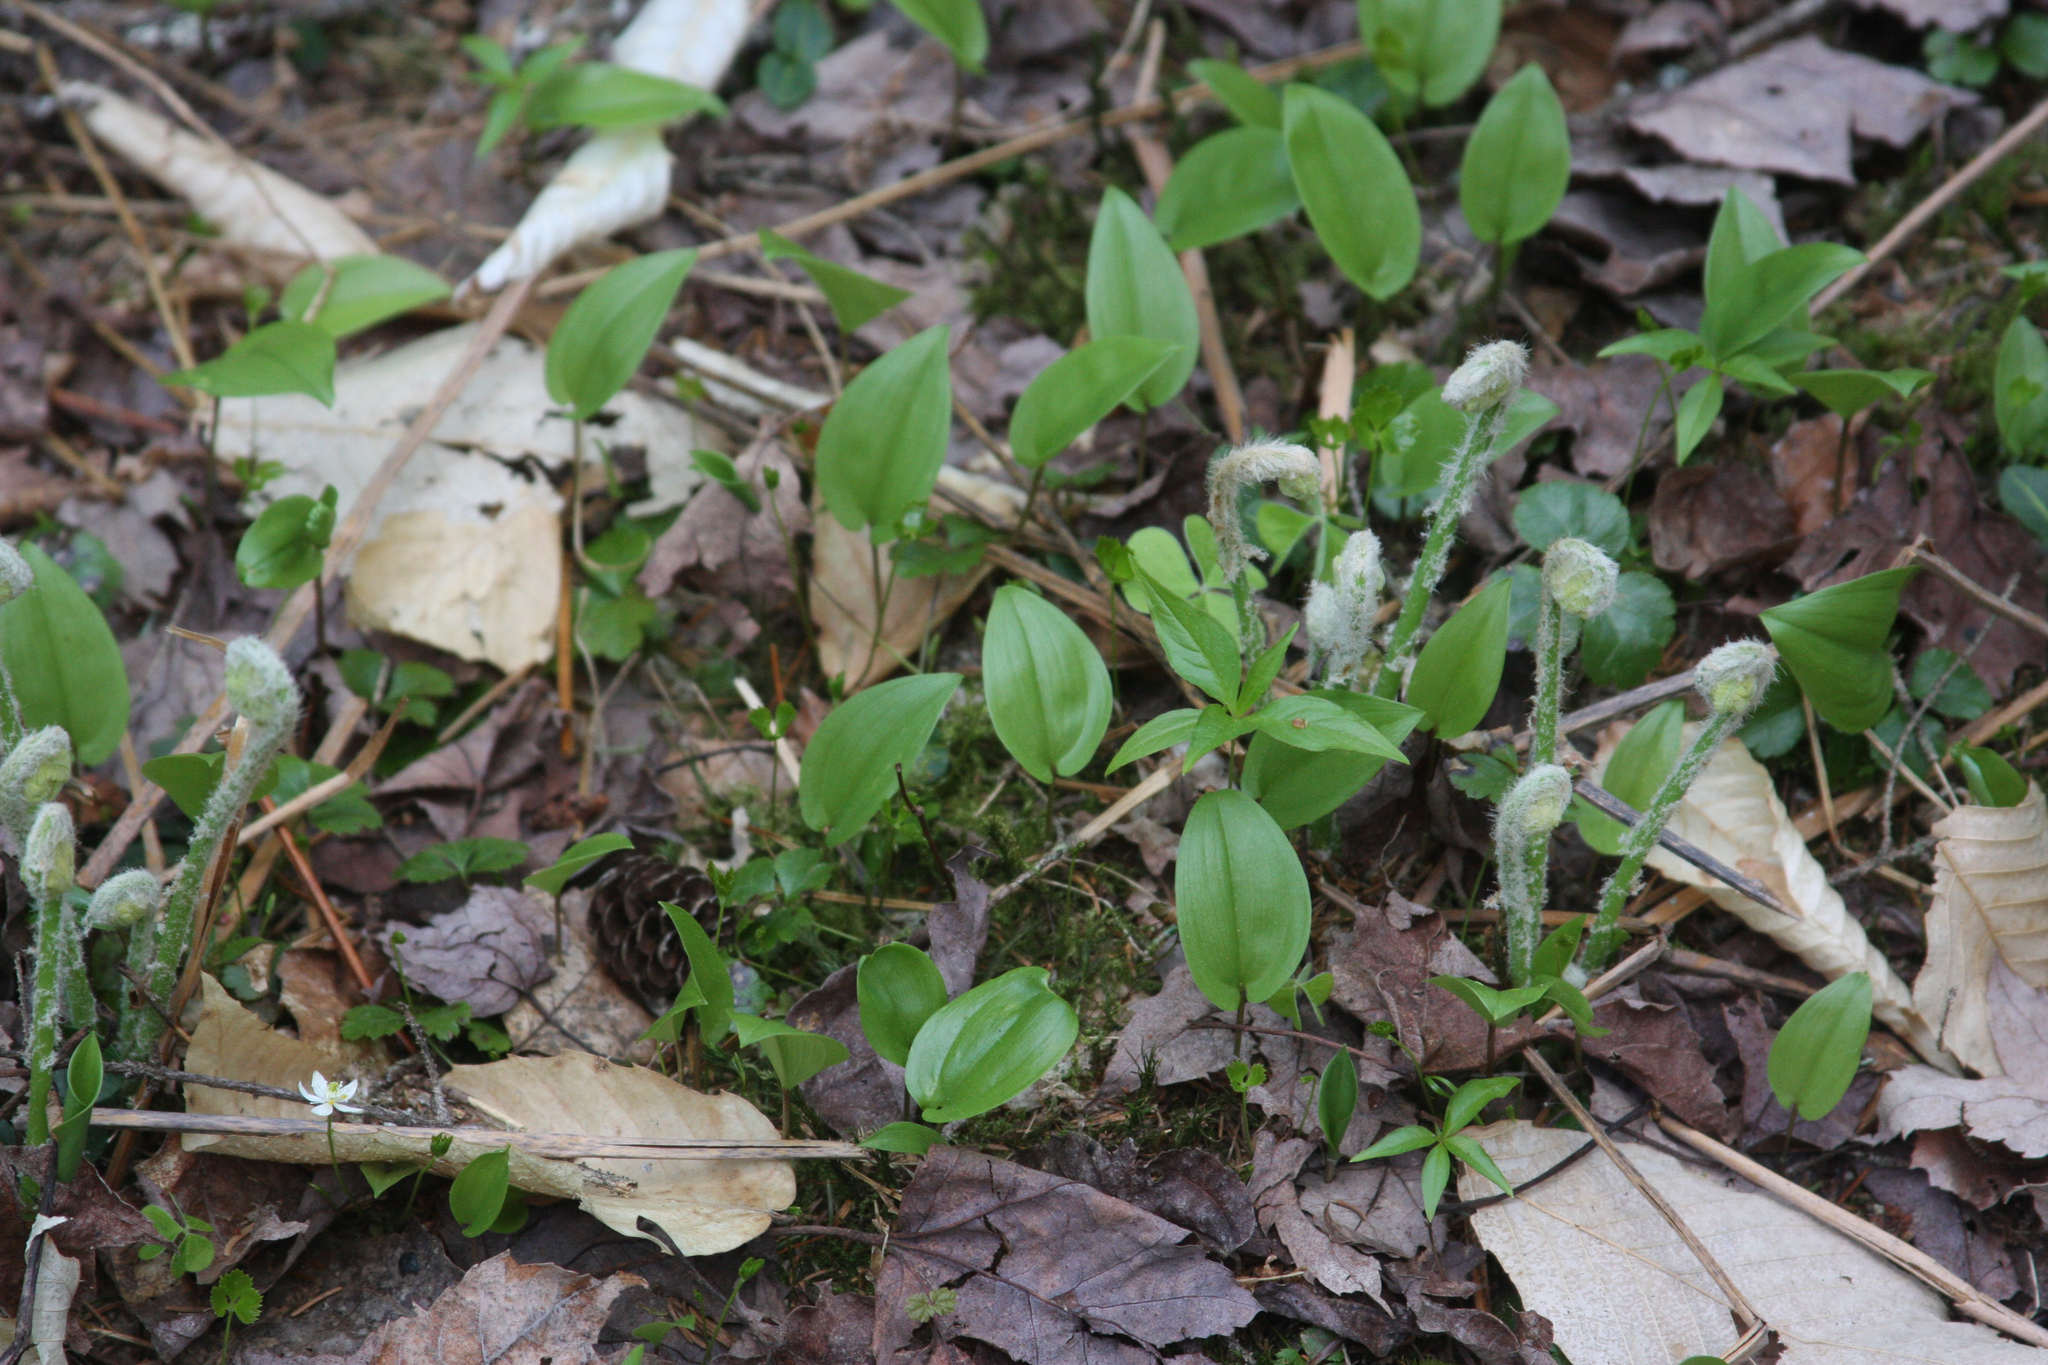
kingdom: Plantae
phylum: Tracheophyta
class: Magnoliopsida
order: Ericales
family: Primulaceae
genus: Lysimachia
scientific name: Lysimachia borealis
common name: American starflower
